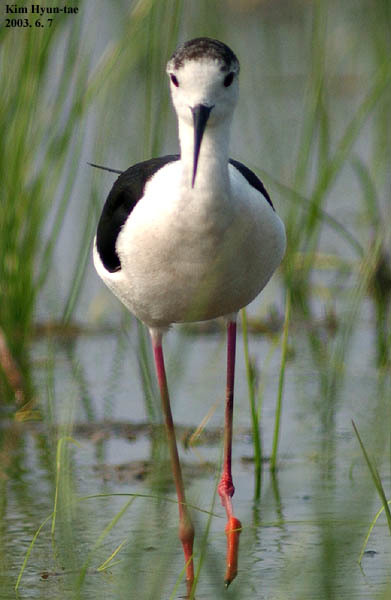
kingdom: Animalia
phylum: Chordata
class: Aves
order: Charadriiformes
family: Recurvirostridae
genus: Himantopus
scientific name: Himantopus himantopus
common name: Black-winged stilt
